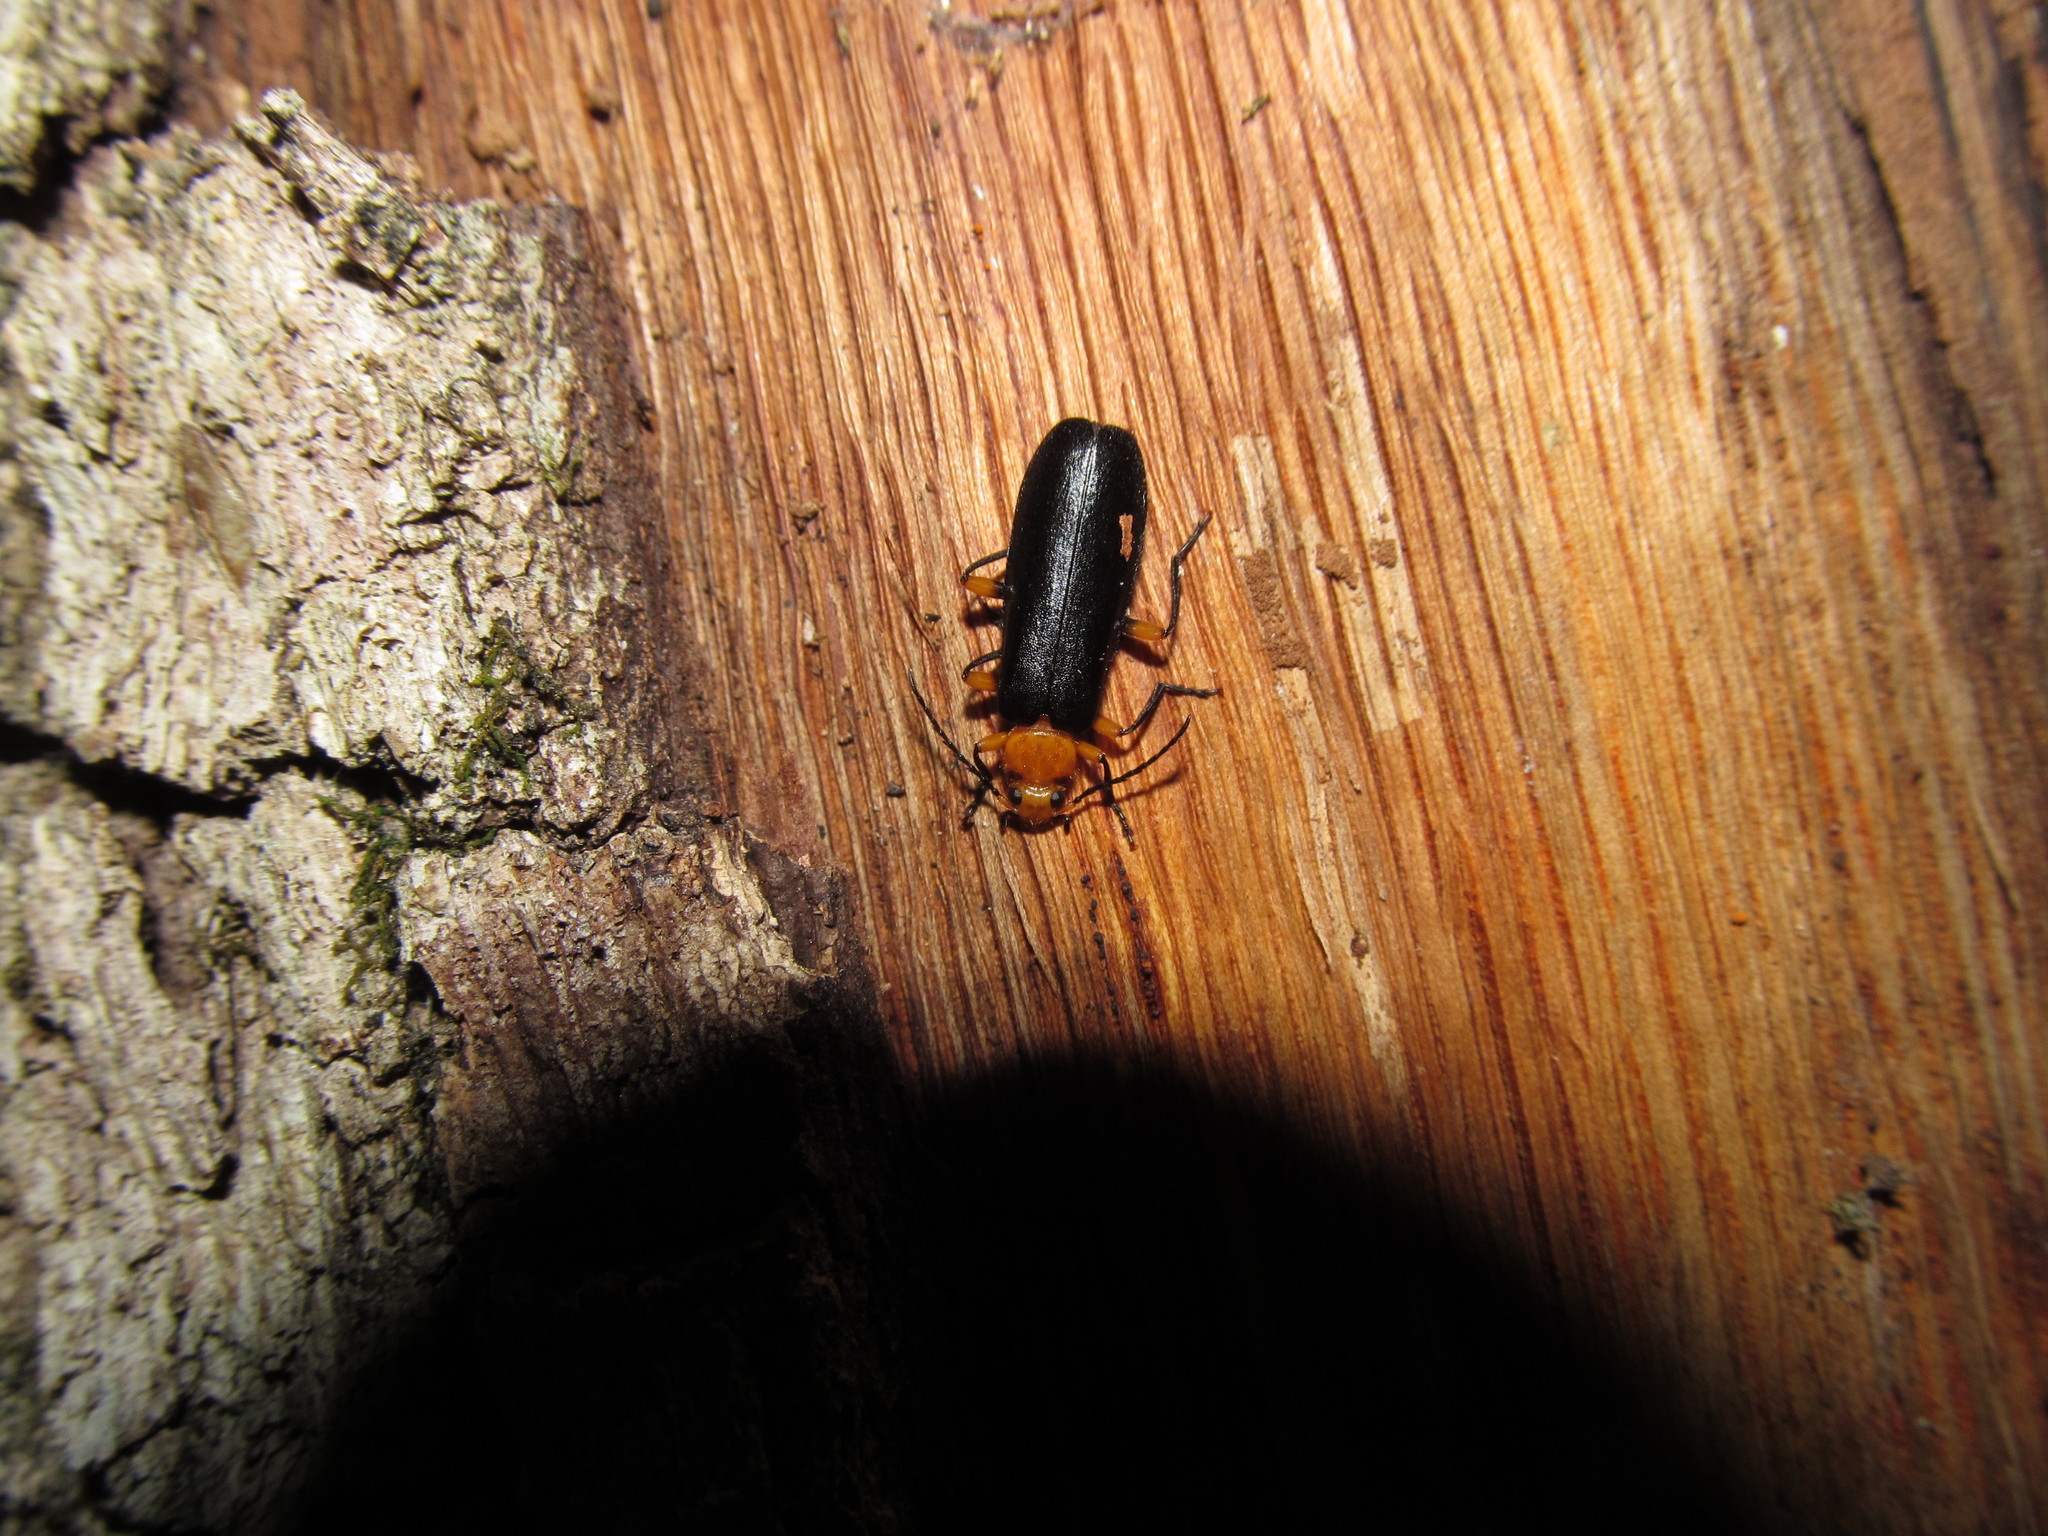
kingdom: Animalia
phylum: Arthropoda
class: Insecta
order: Coleoptera
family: Pyrochroidae
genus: Neopyrochroa
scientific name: Neopyrochroa femoralis
